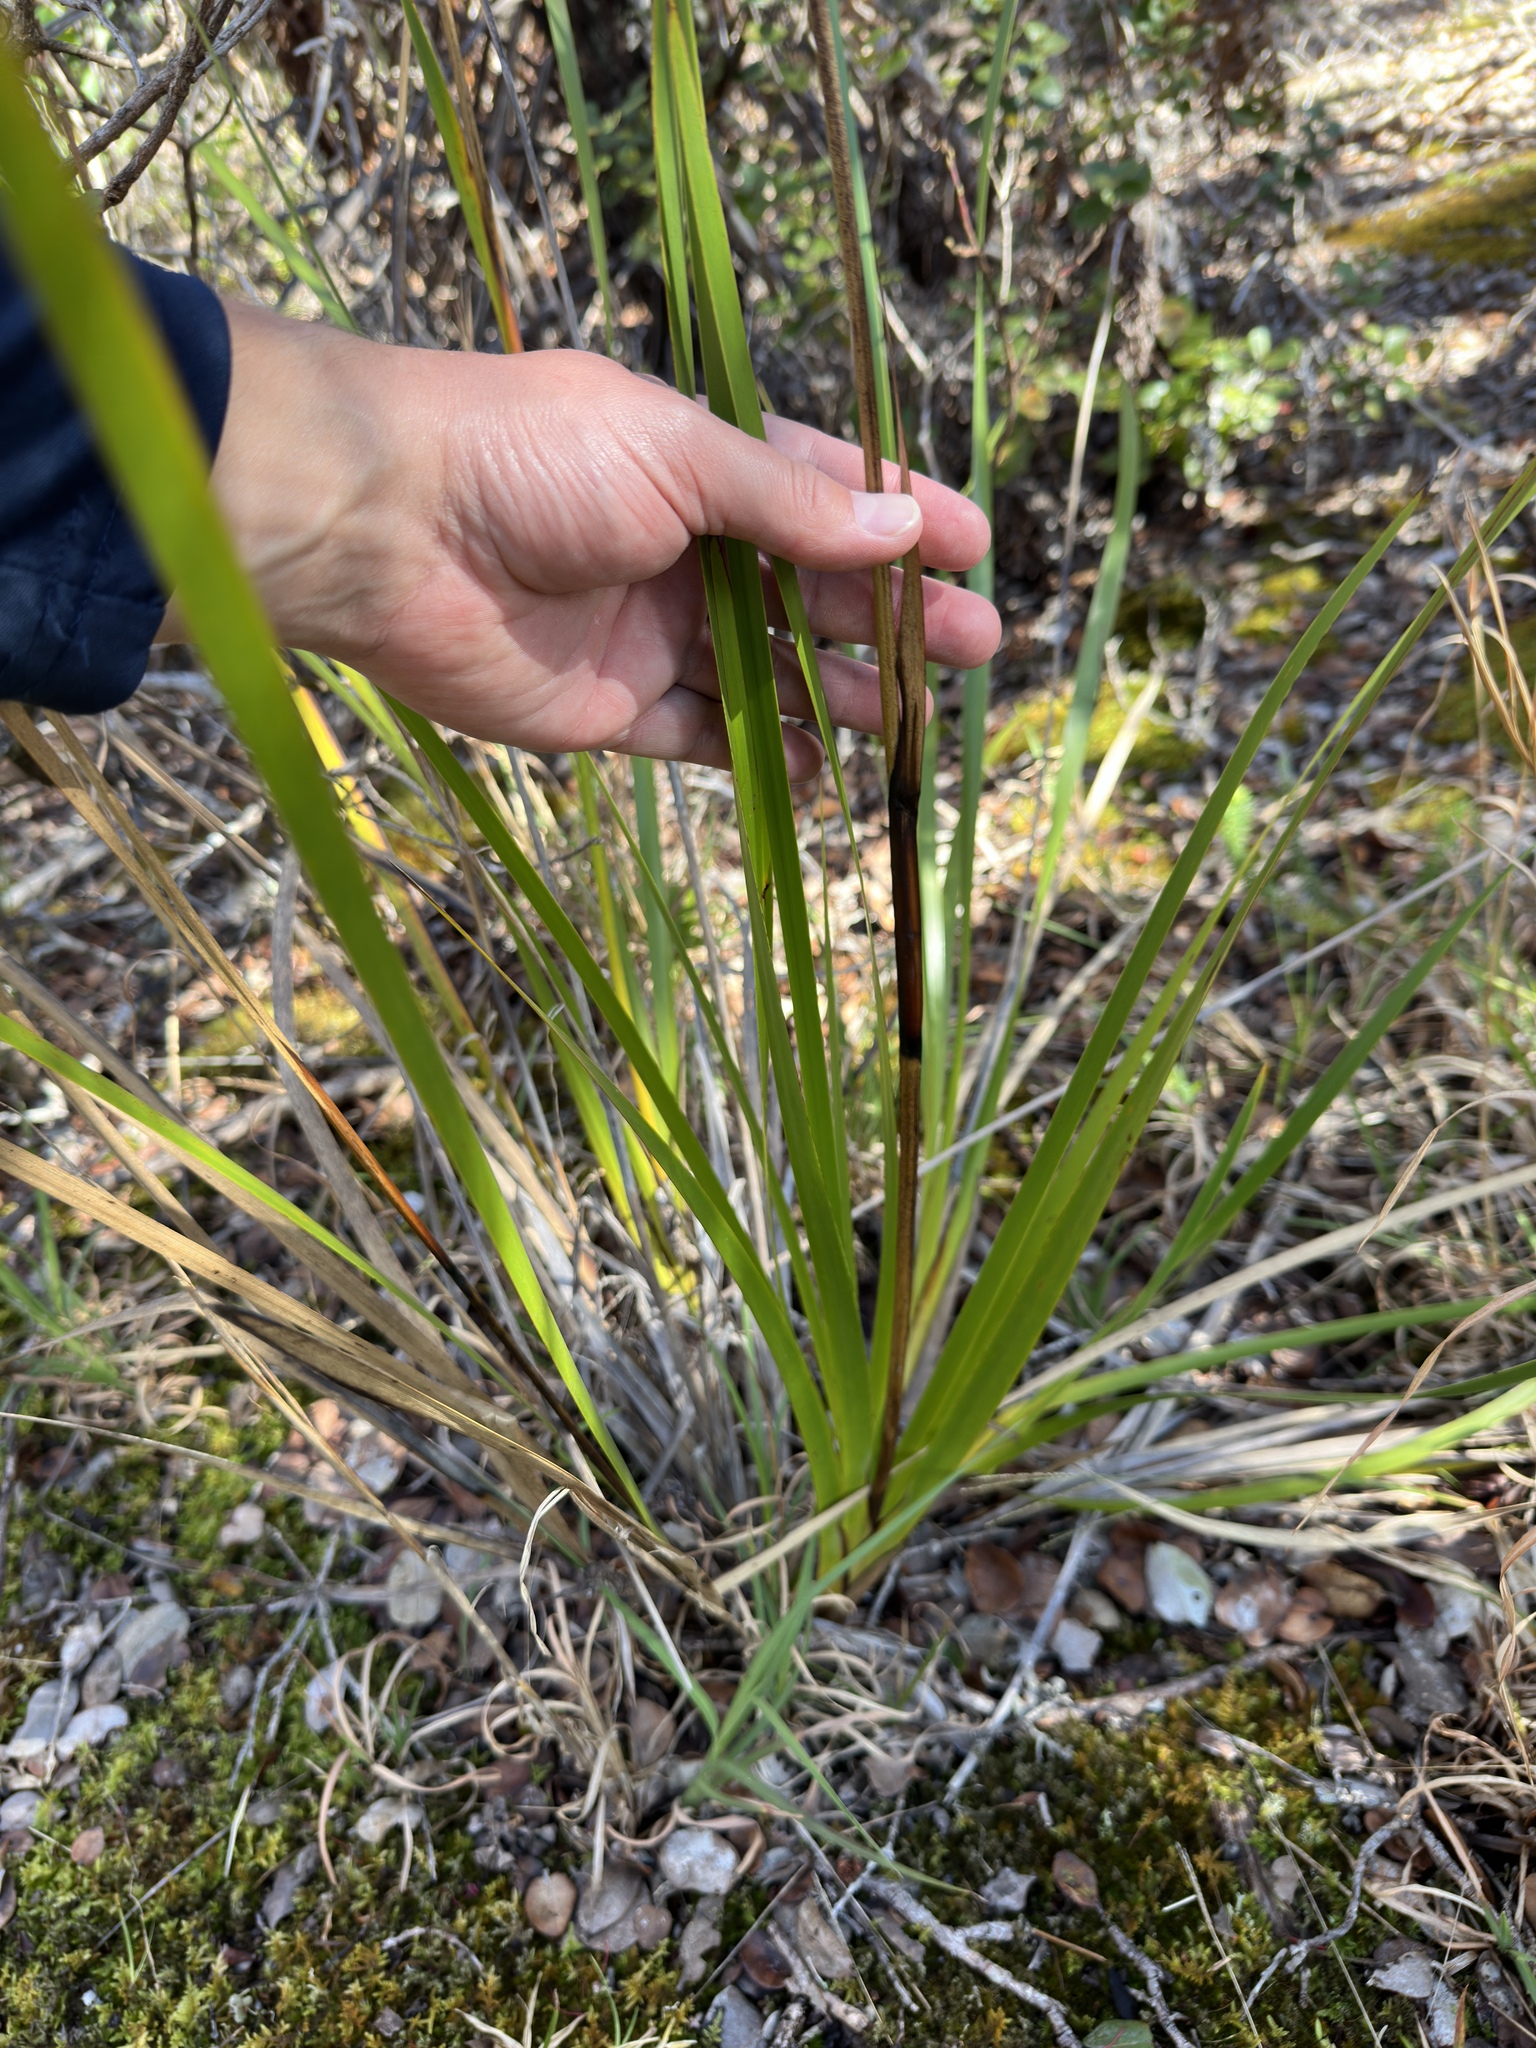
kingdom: Plantae
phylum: Tracheophyta
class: Liliopsida
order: Poales
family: Cyperaceae
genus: Machaerina
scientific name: Machaerina angustifolia
